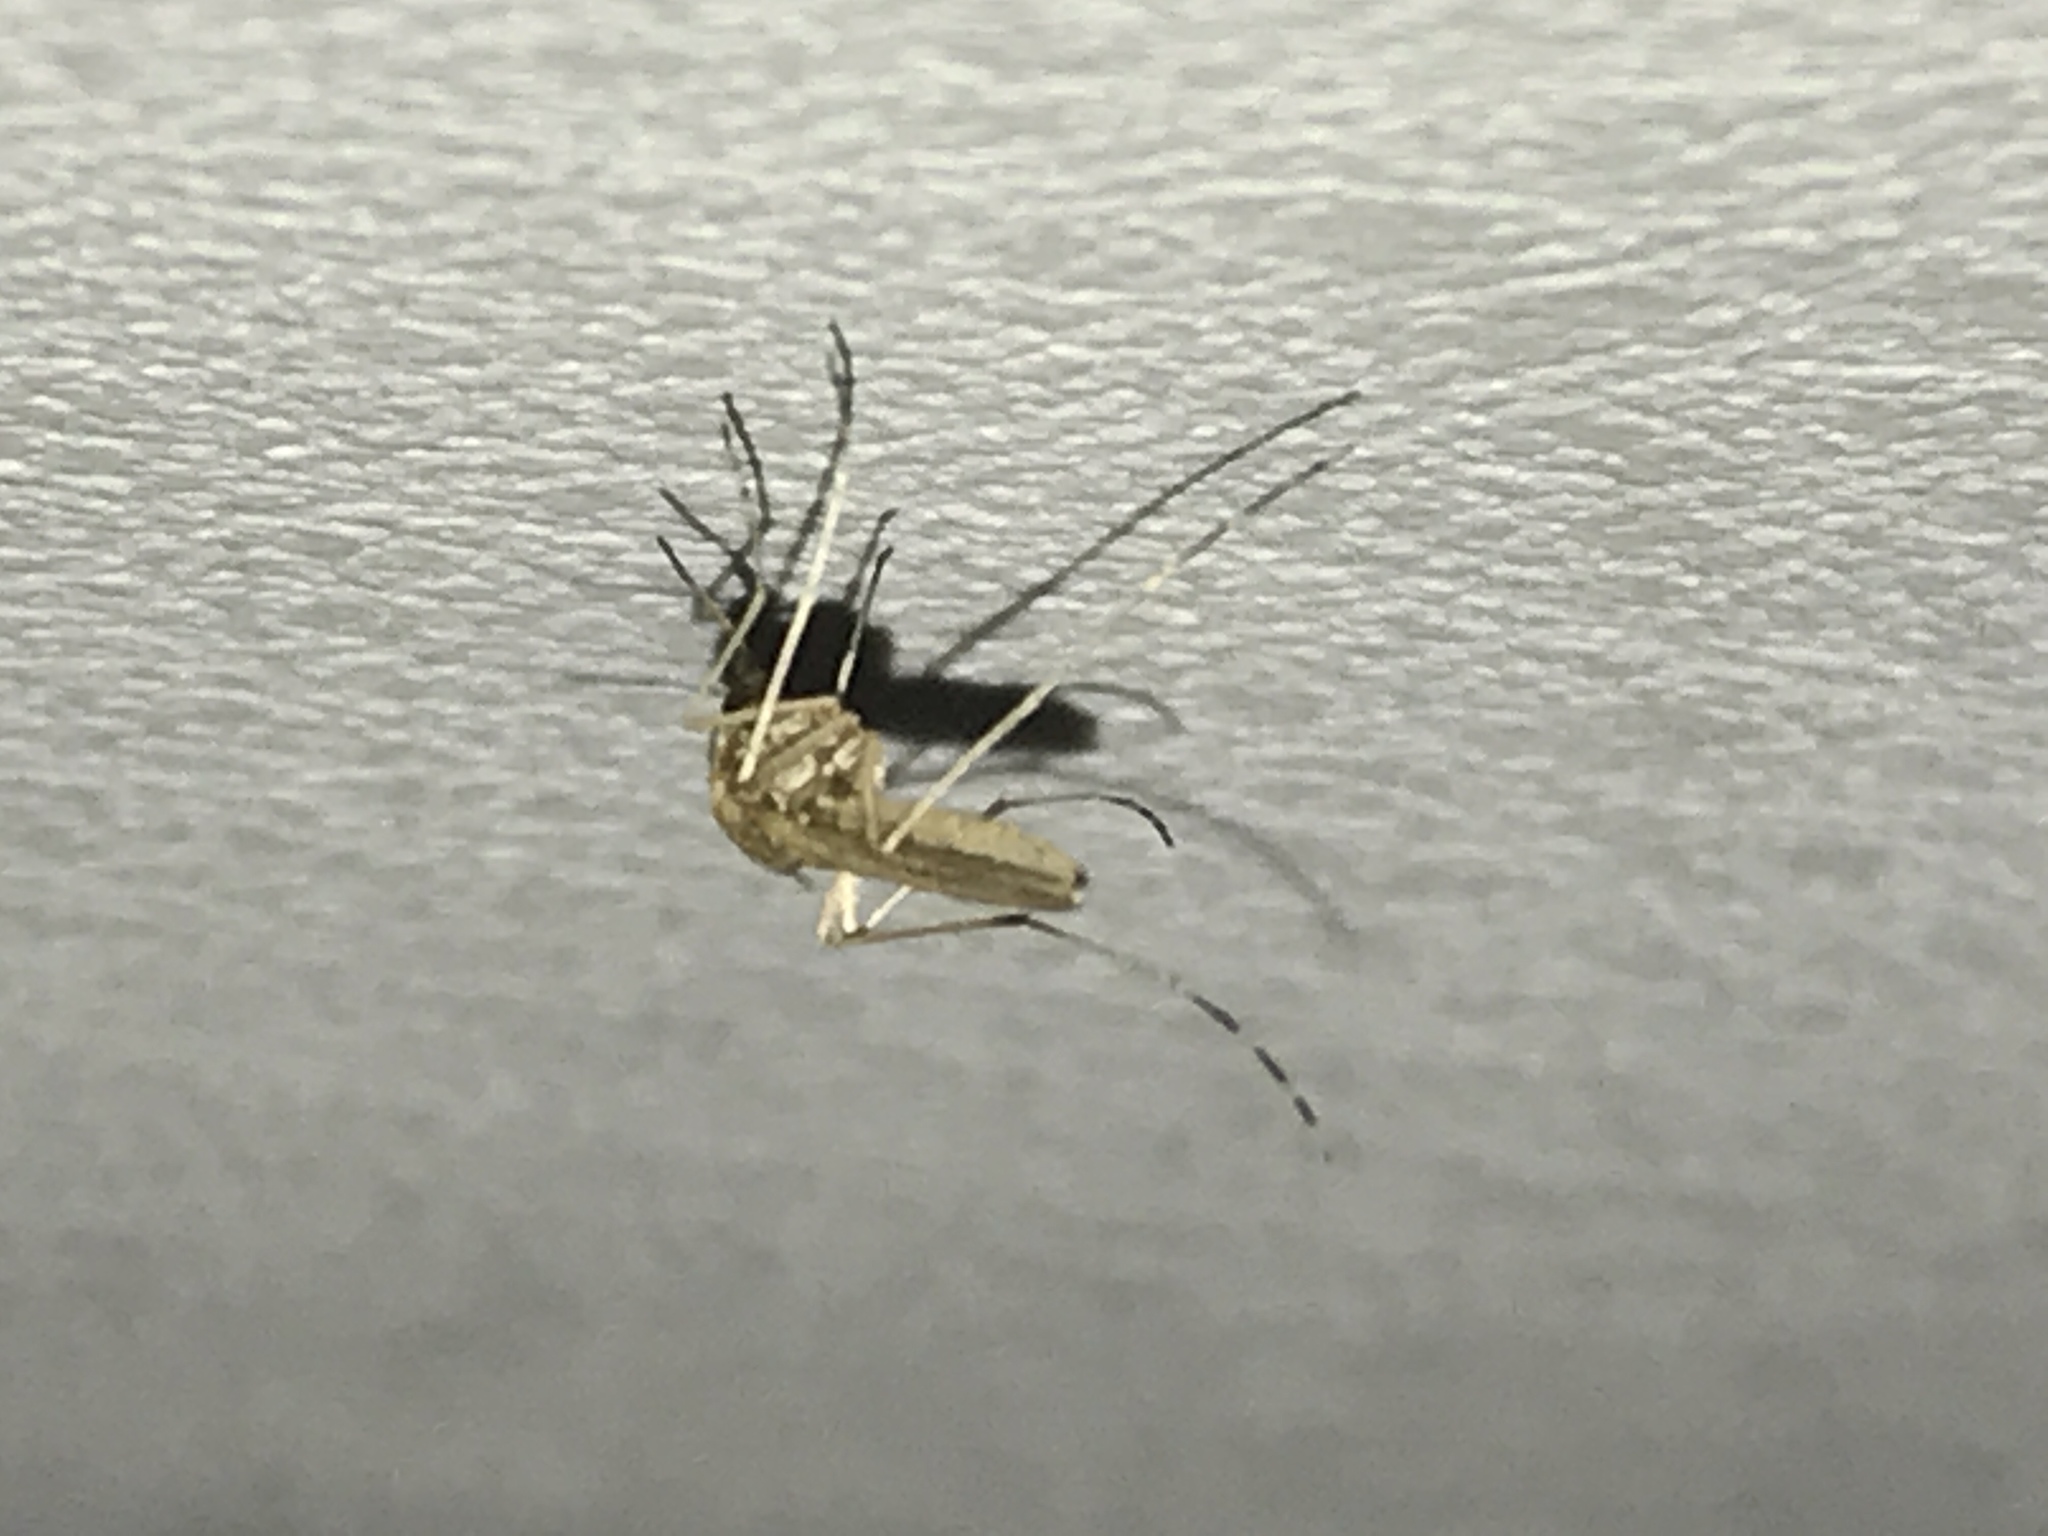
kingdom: Animalia
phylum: Arthropoda
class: Insecta
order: Diptera
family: Culicidae
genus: Aedes
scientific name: Aedes dorsalis
